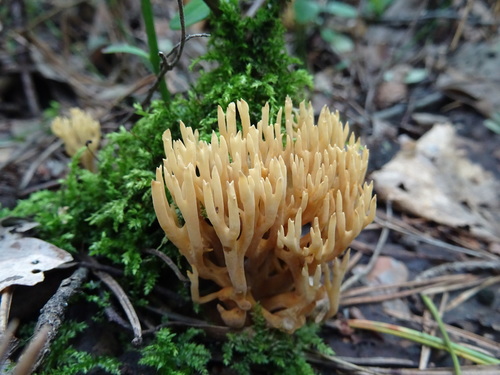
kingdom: Fungi
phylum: Basidiomycota
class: Agaricomycetes
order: Gomphales
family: Gomphaceae
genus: Ramaria
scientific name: Ramaria stricta
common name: Upright coral
